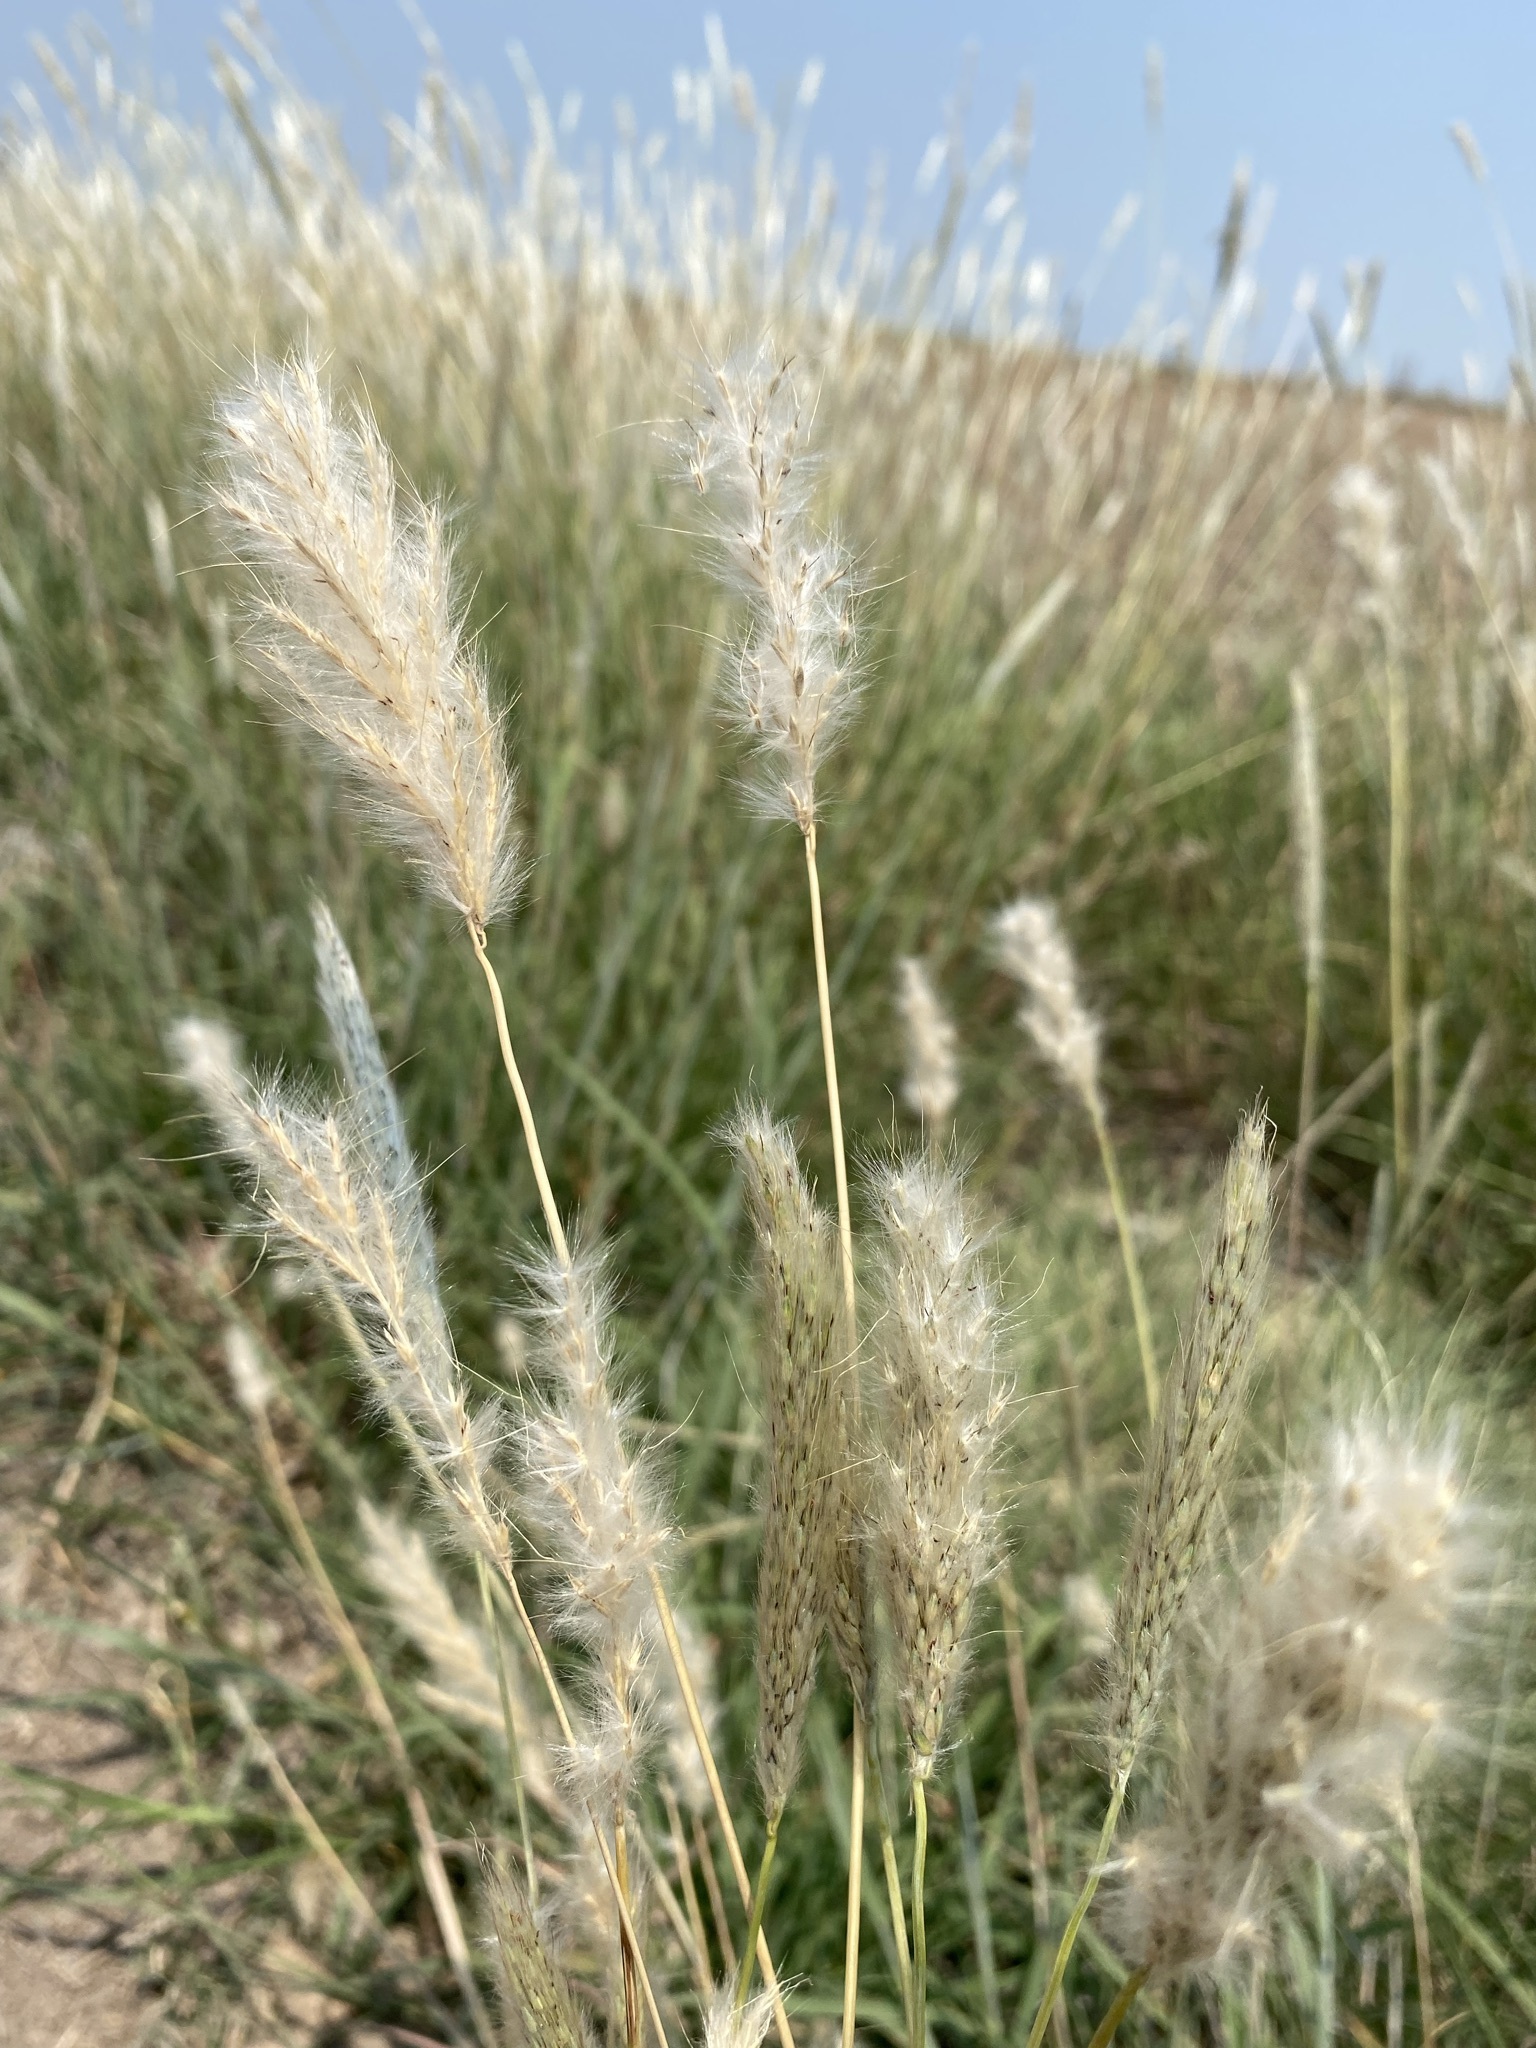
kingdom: Plantae
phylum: Tracheophyta
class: Liliopsida
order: Poales
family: Poaceae
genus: Bothriochloa
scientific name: Bothriochloa torreyana
